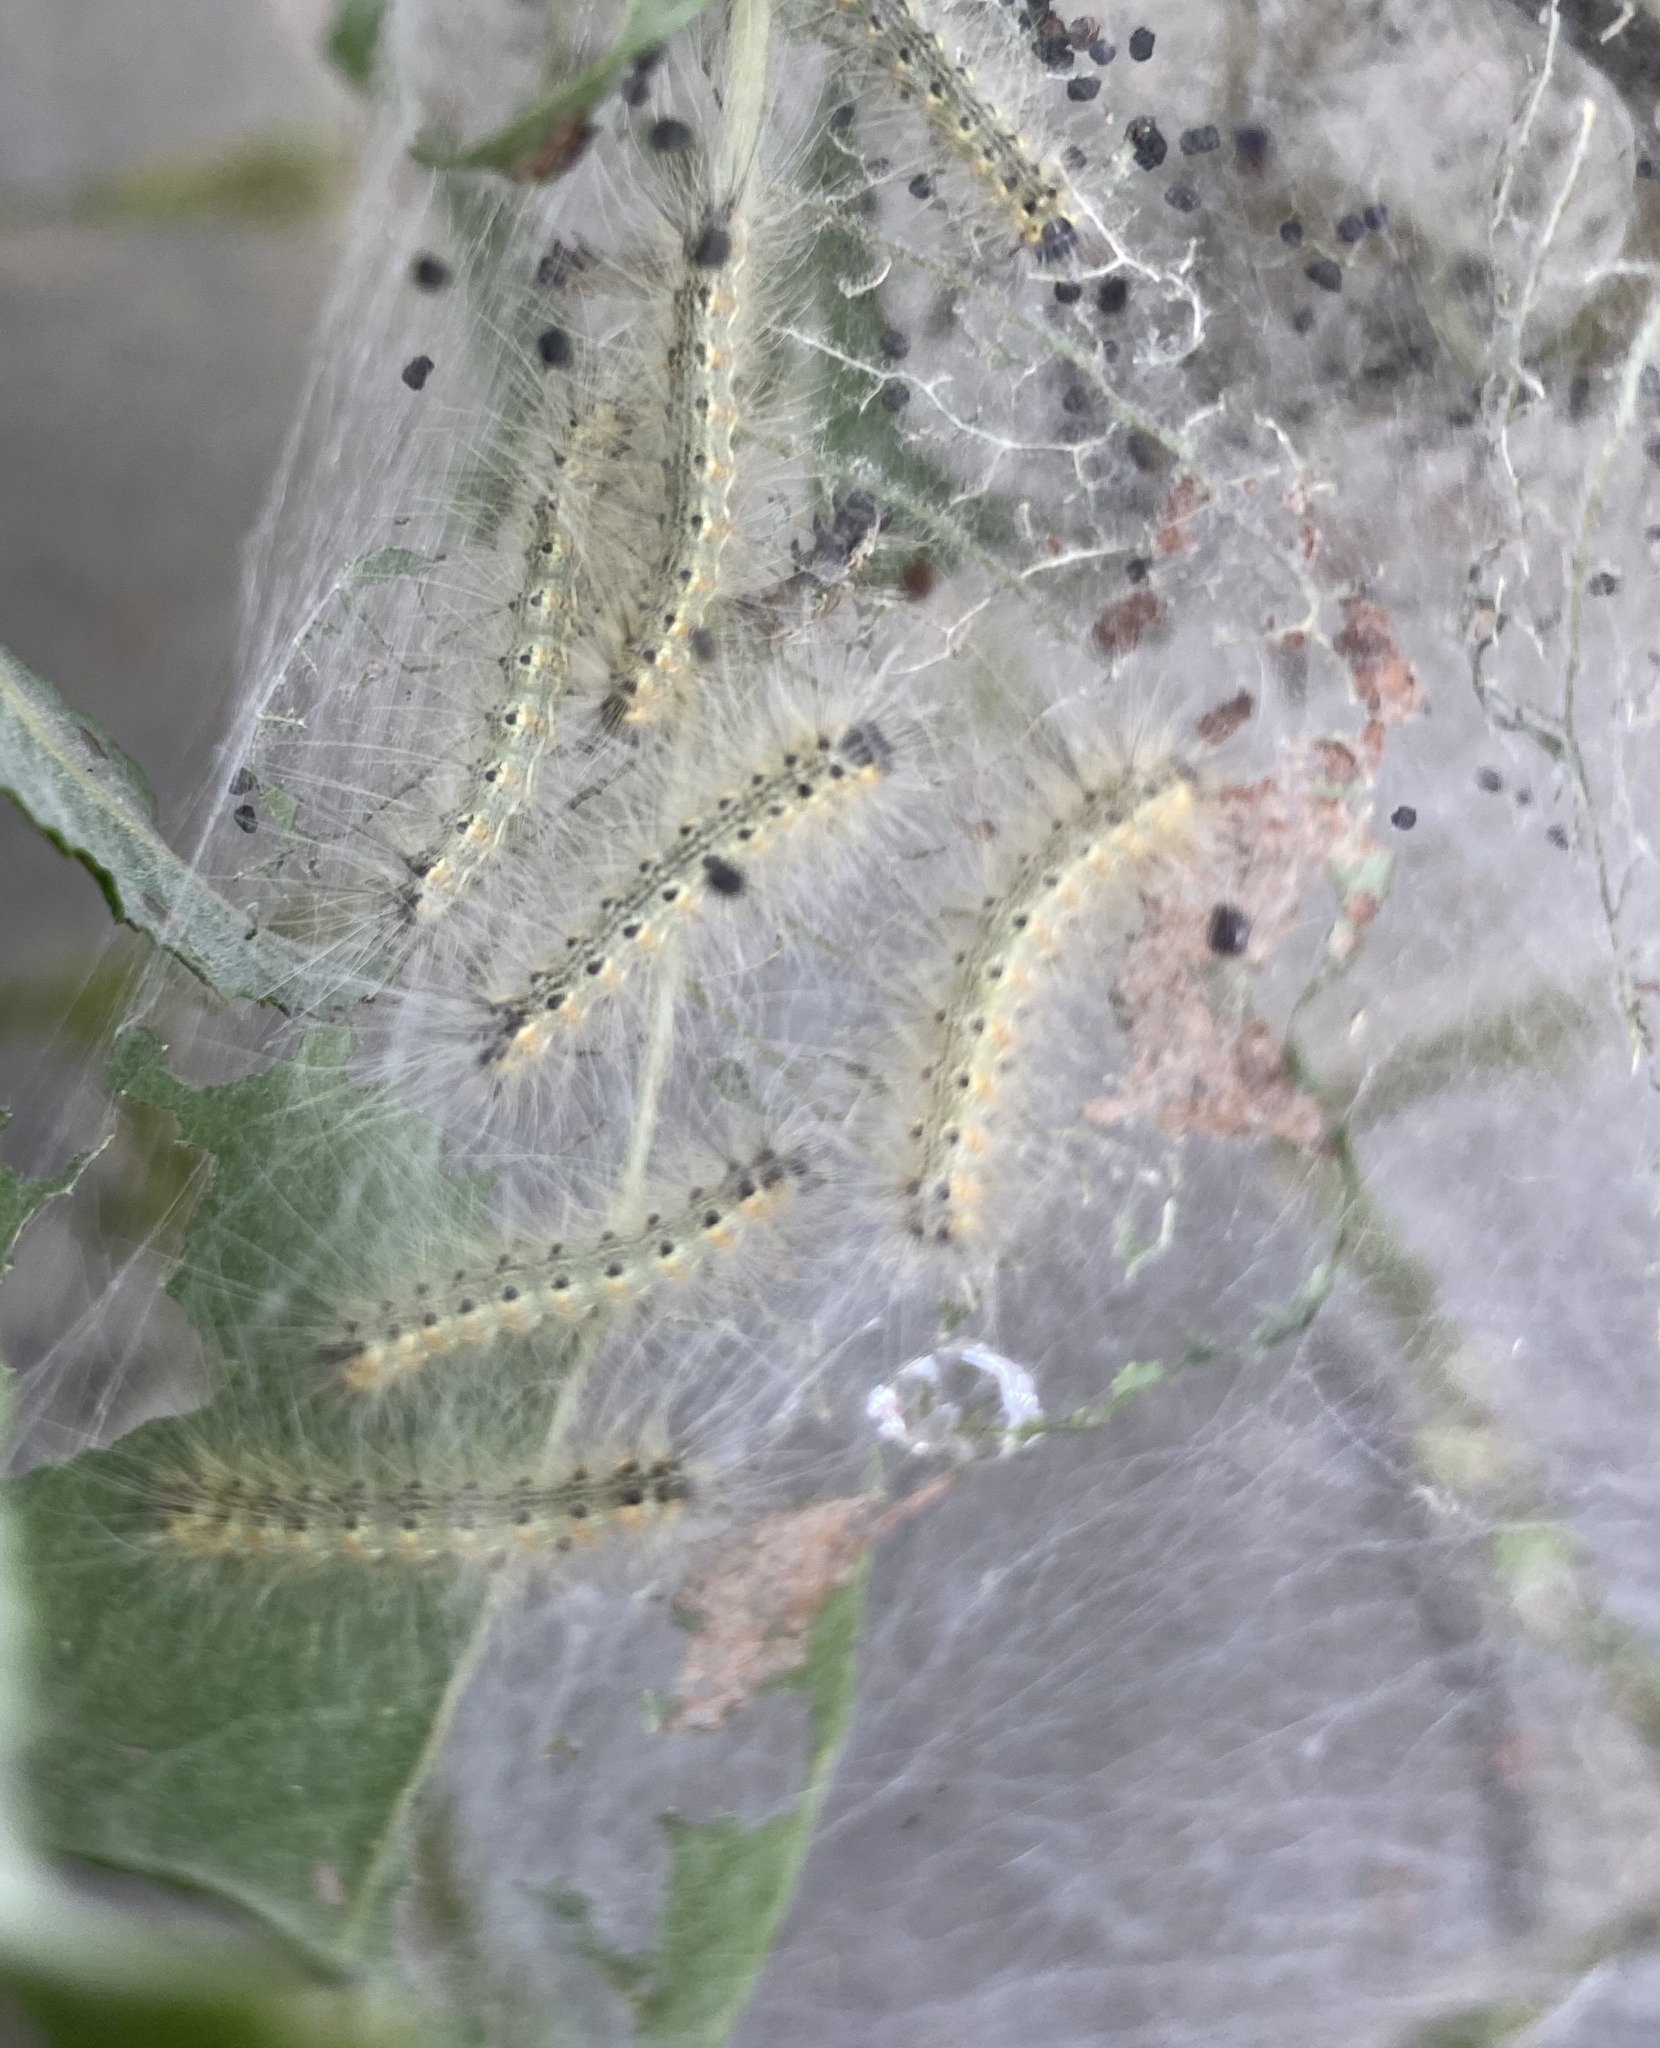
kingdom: Animalia
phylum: Arthropoda
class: Insecta
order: Lepidoptera
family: Erebidae
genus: Hyphantria
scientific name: Hyphantria cunea
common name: American white moth
